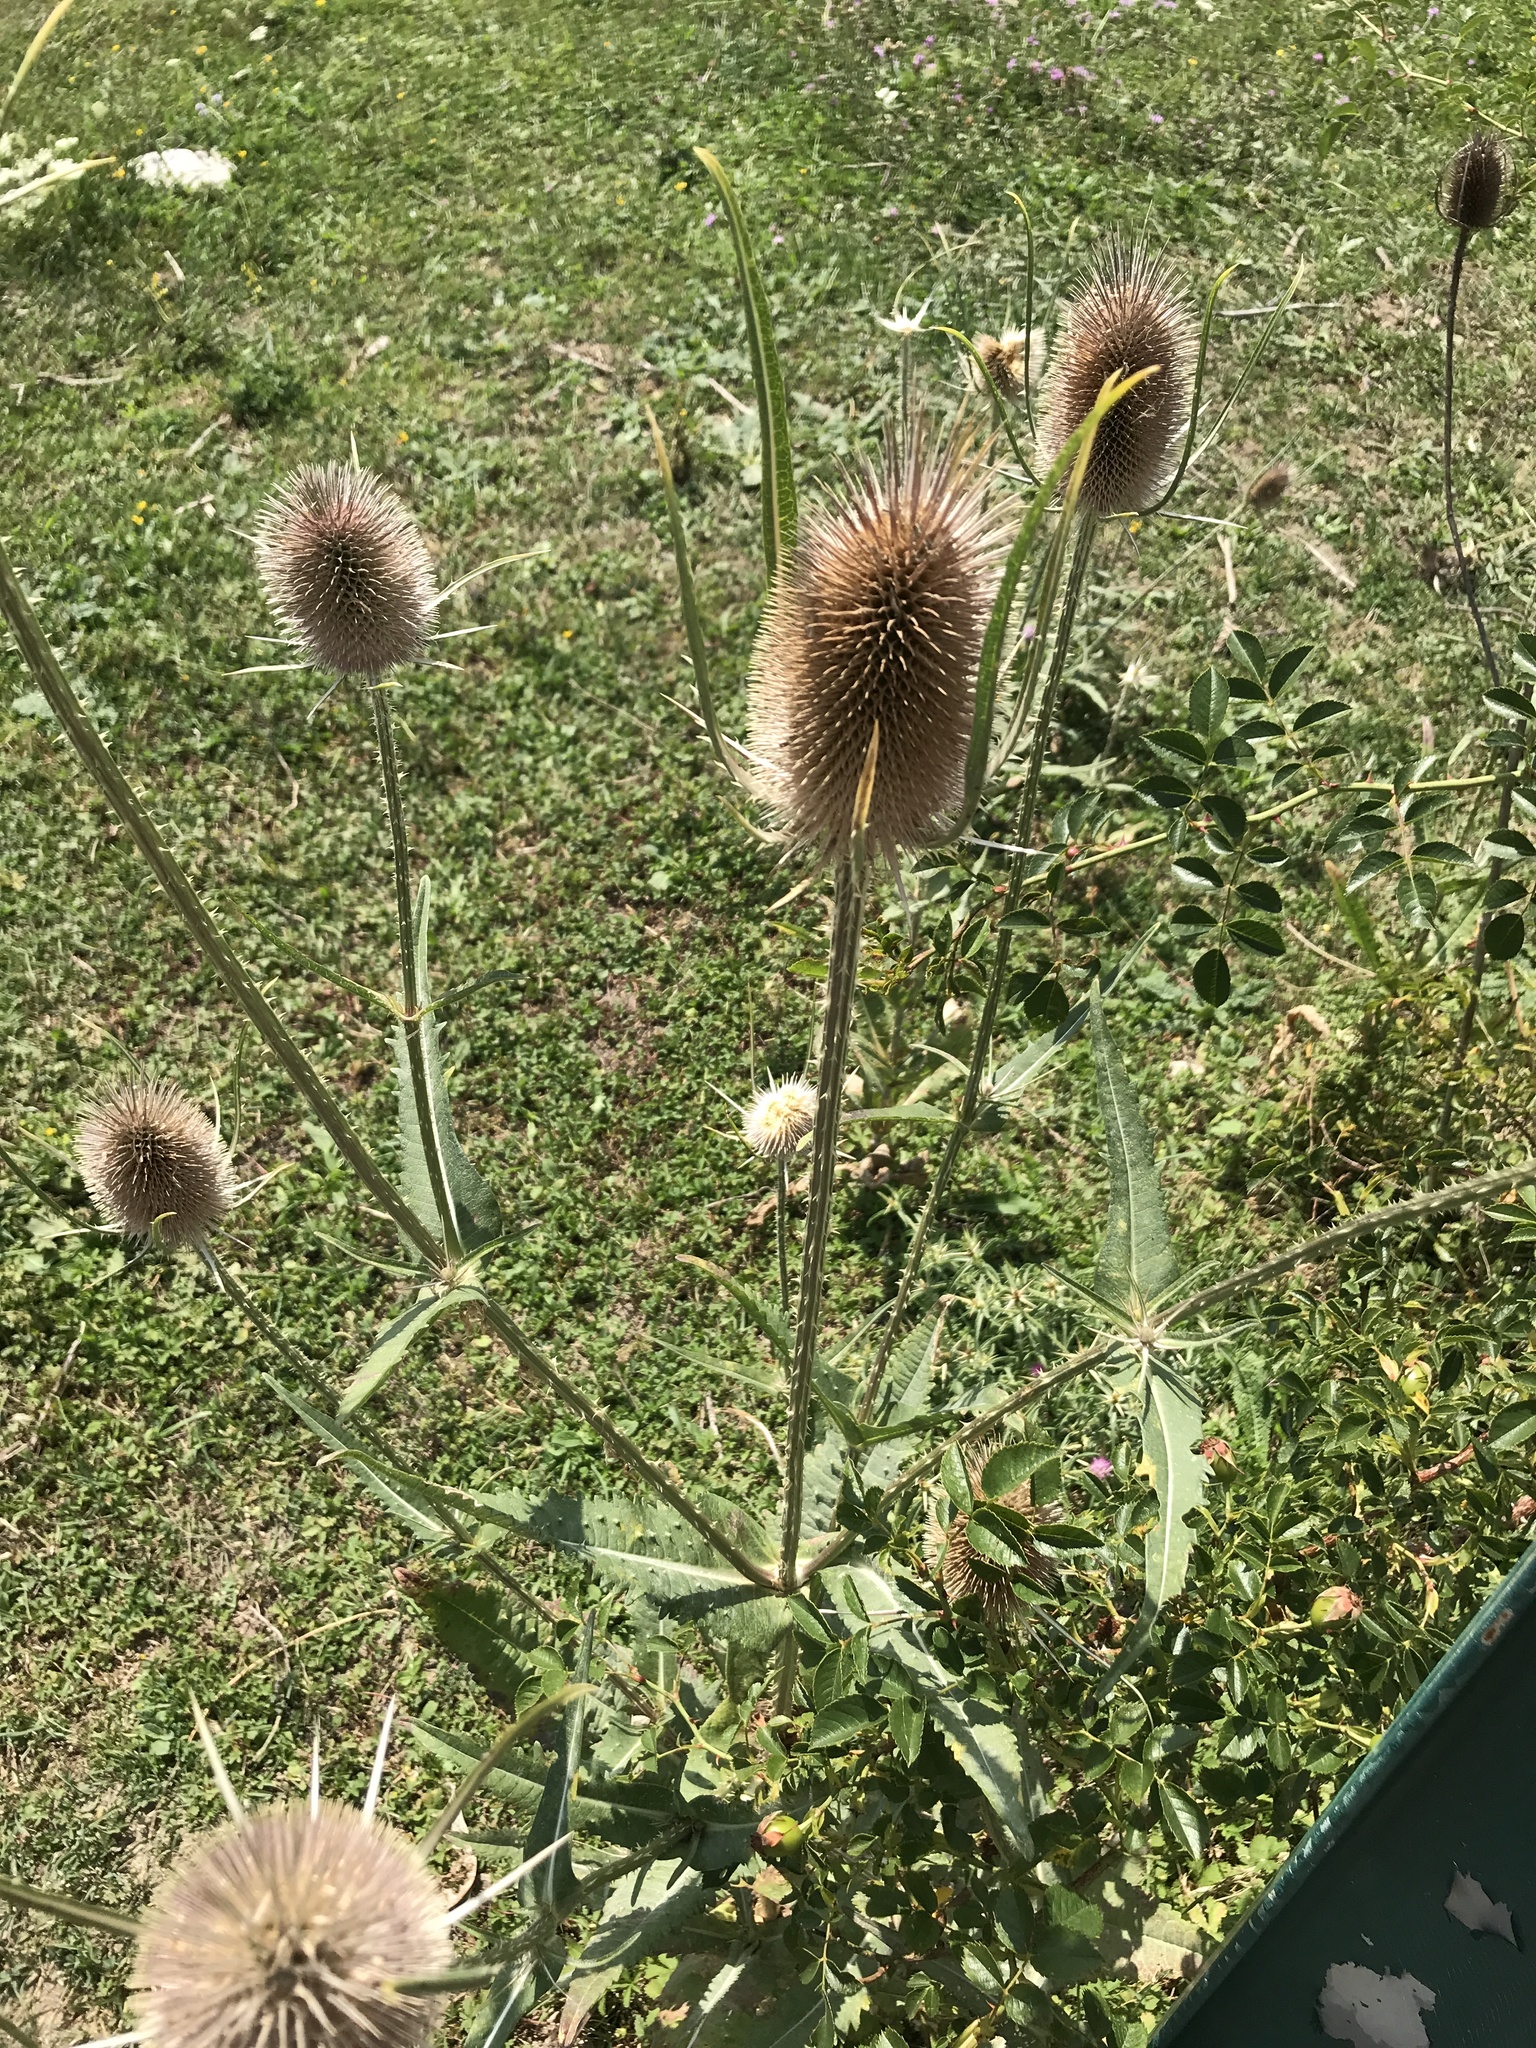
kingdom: Plantae
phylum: Tracheophyta
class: Magnoliopsida
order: Dipsacales
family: Caprifoliaceae
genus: Dipsacus
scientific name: Dipsacus fullonum
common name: Teasel
